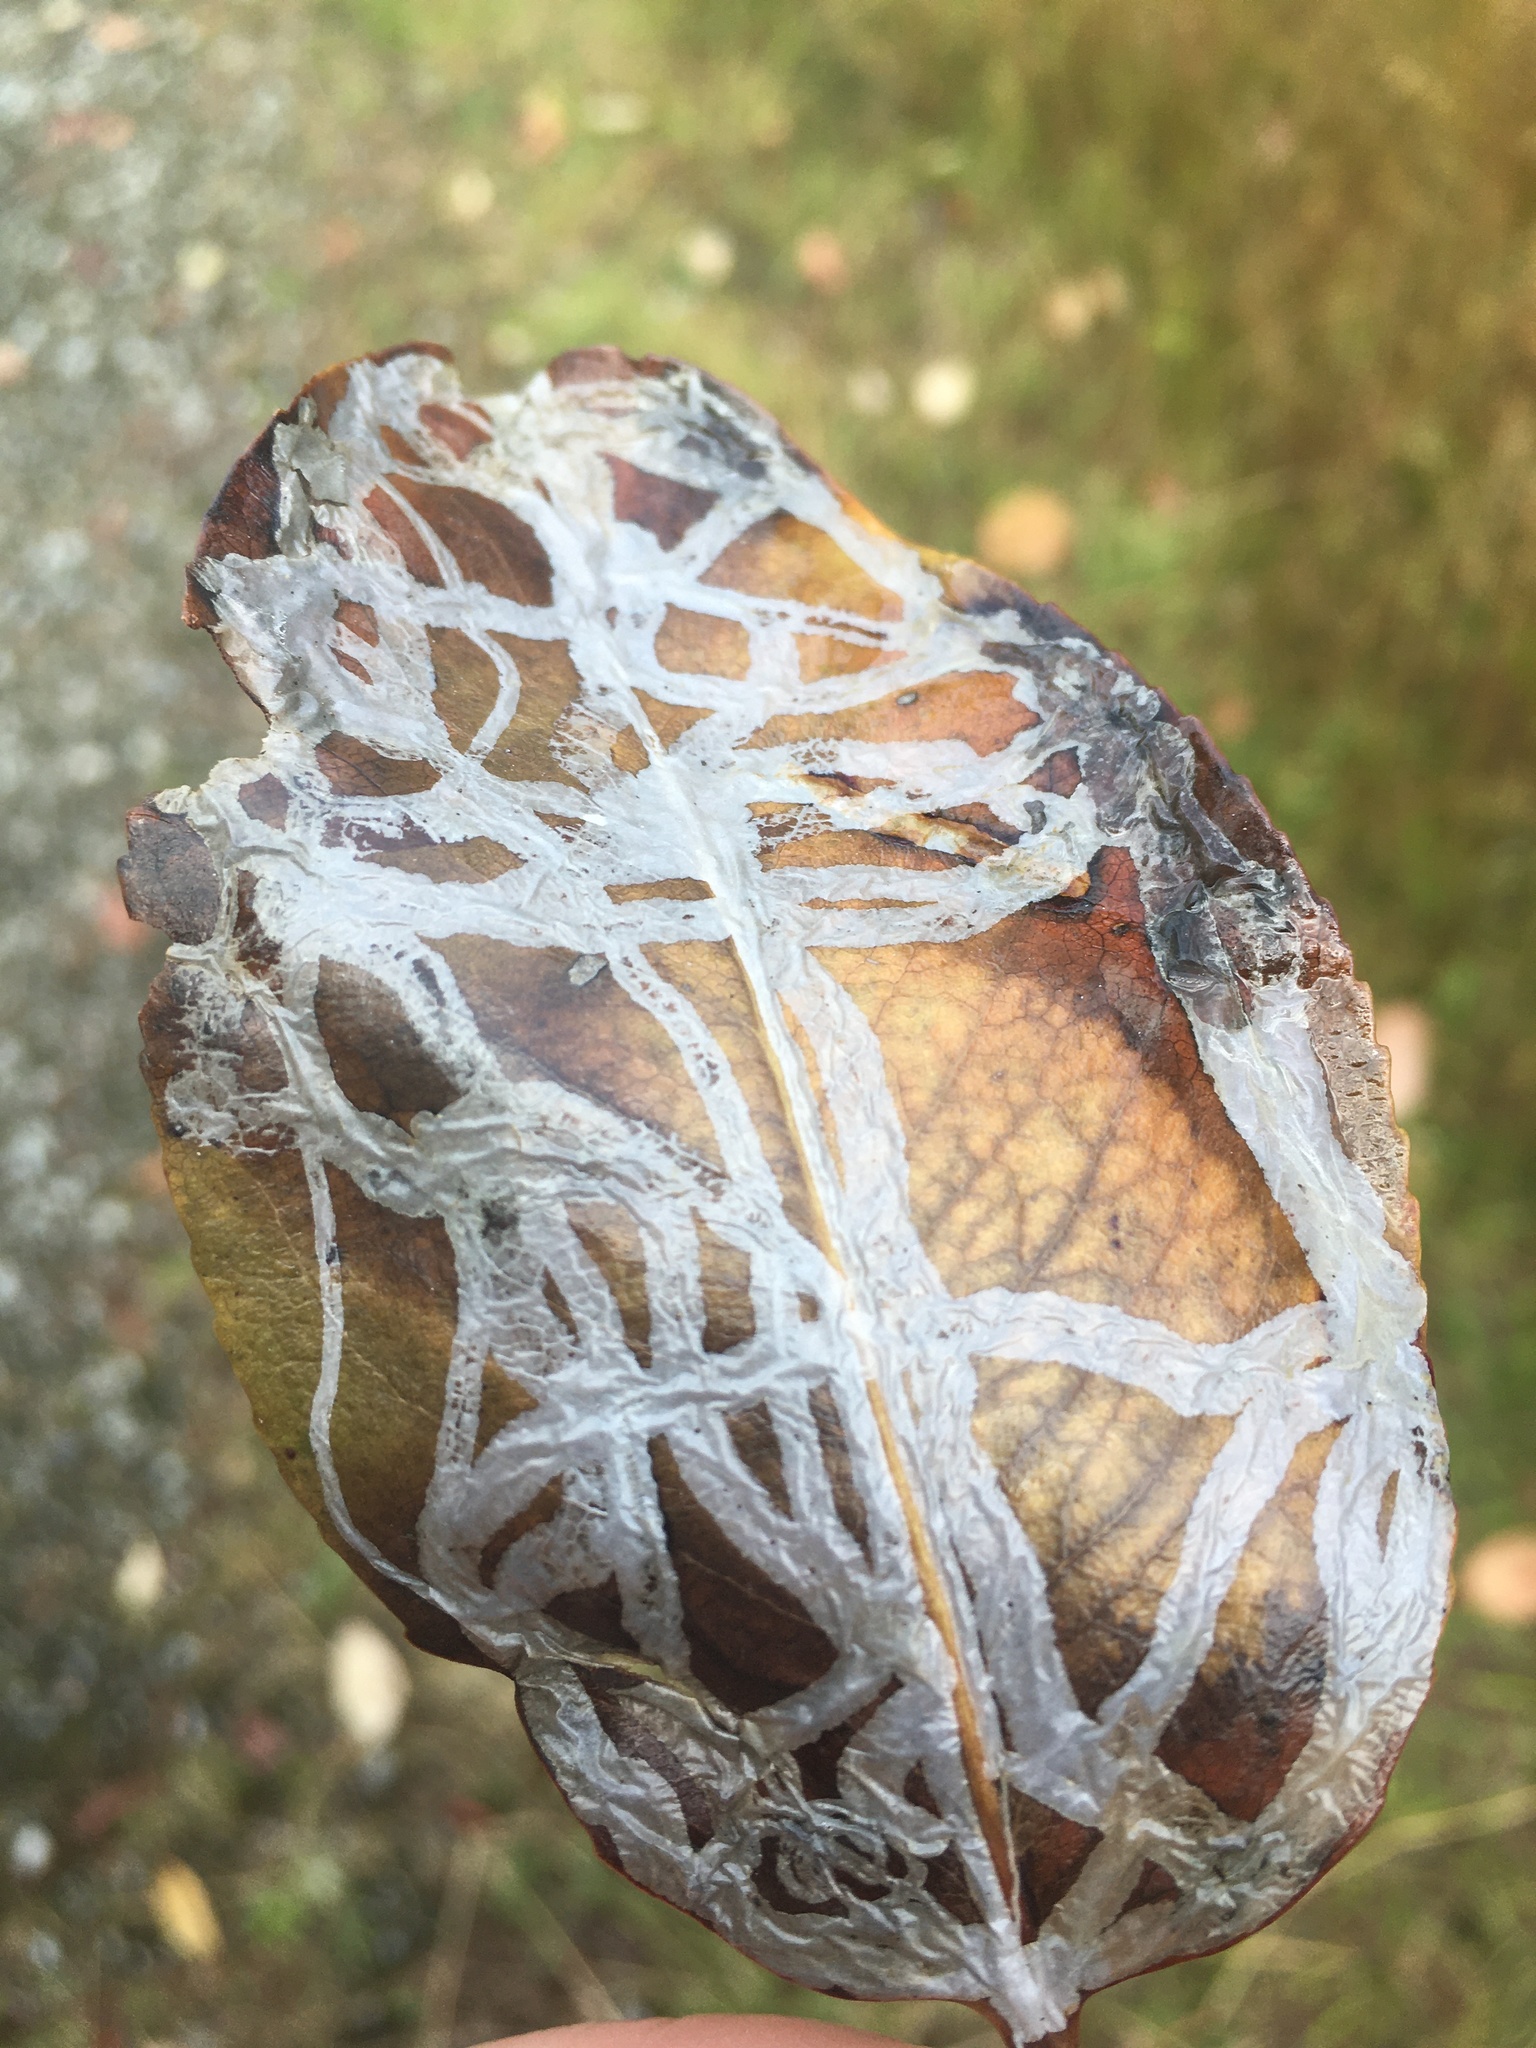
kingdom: Animalia
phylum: Arthropoda
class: Insecta
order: Lepidoptera
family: Gracillariidae
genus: Marmara
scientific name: Marmara arbutiella
